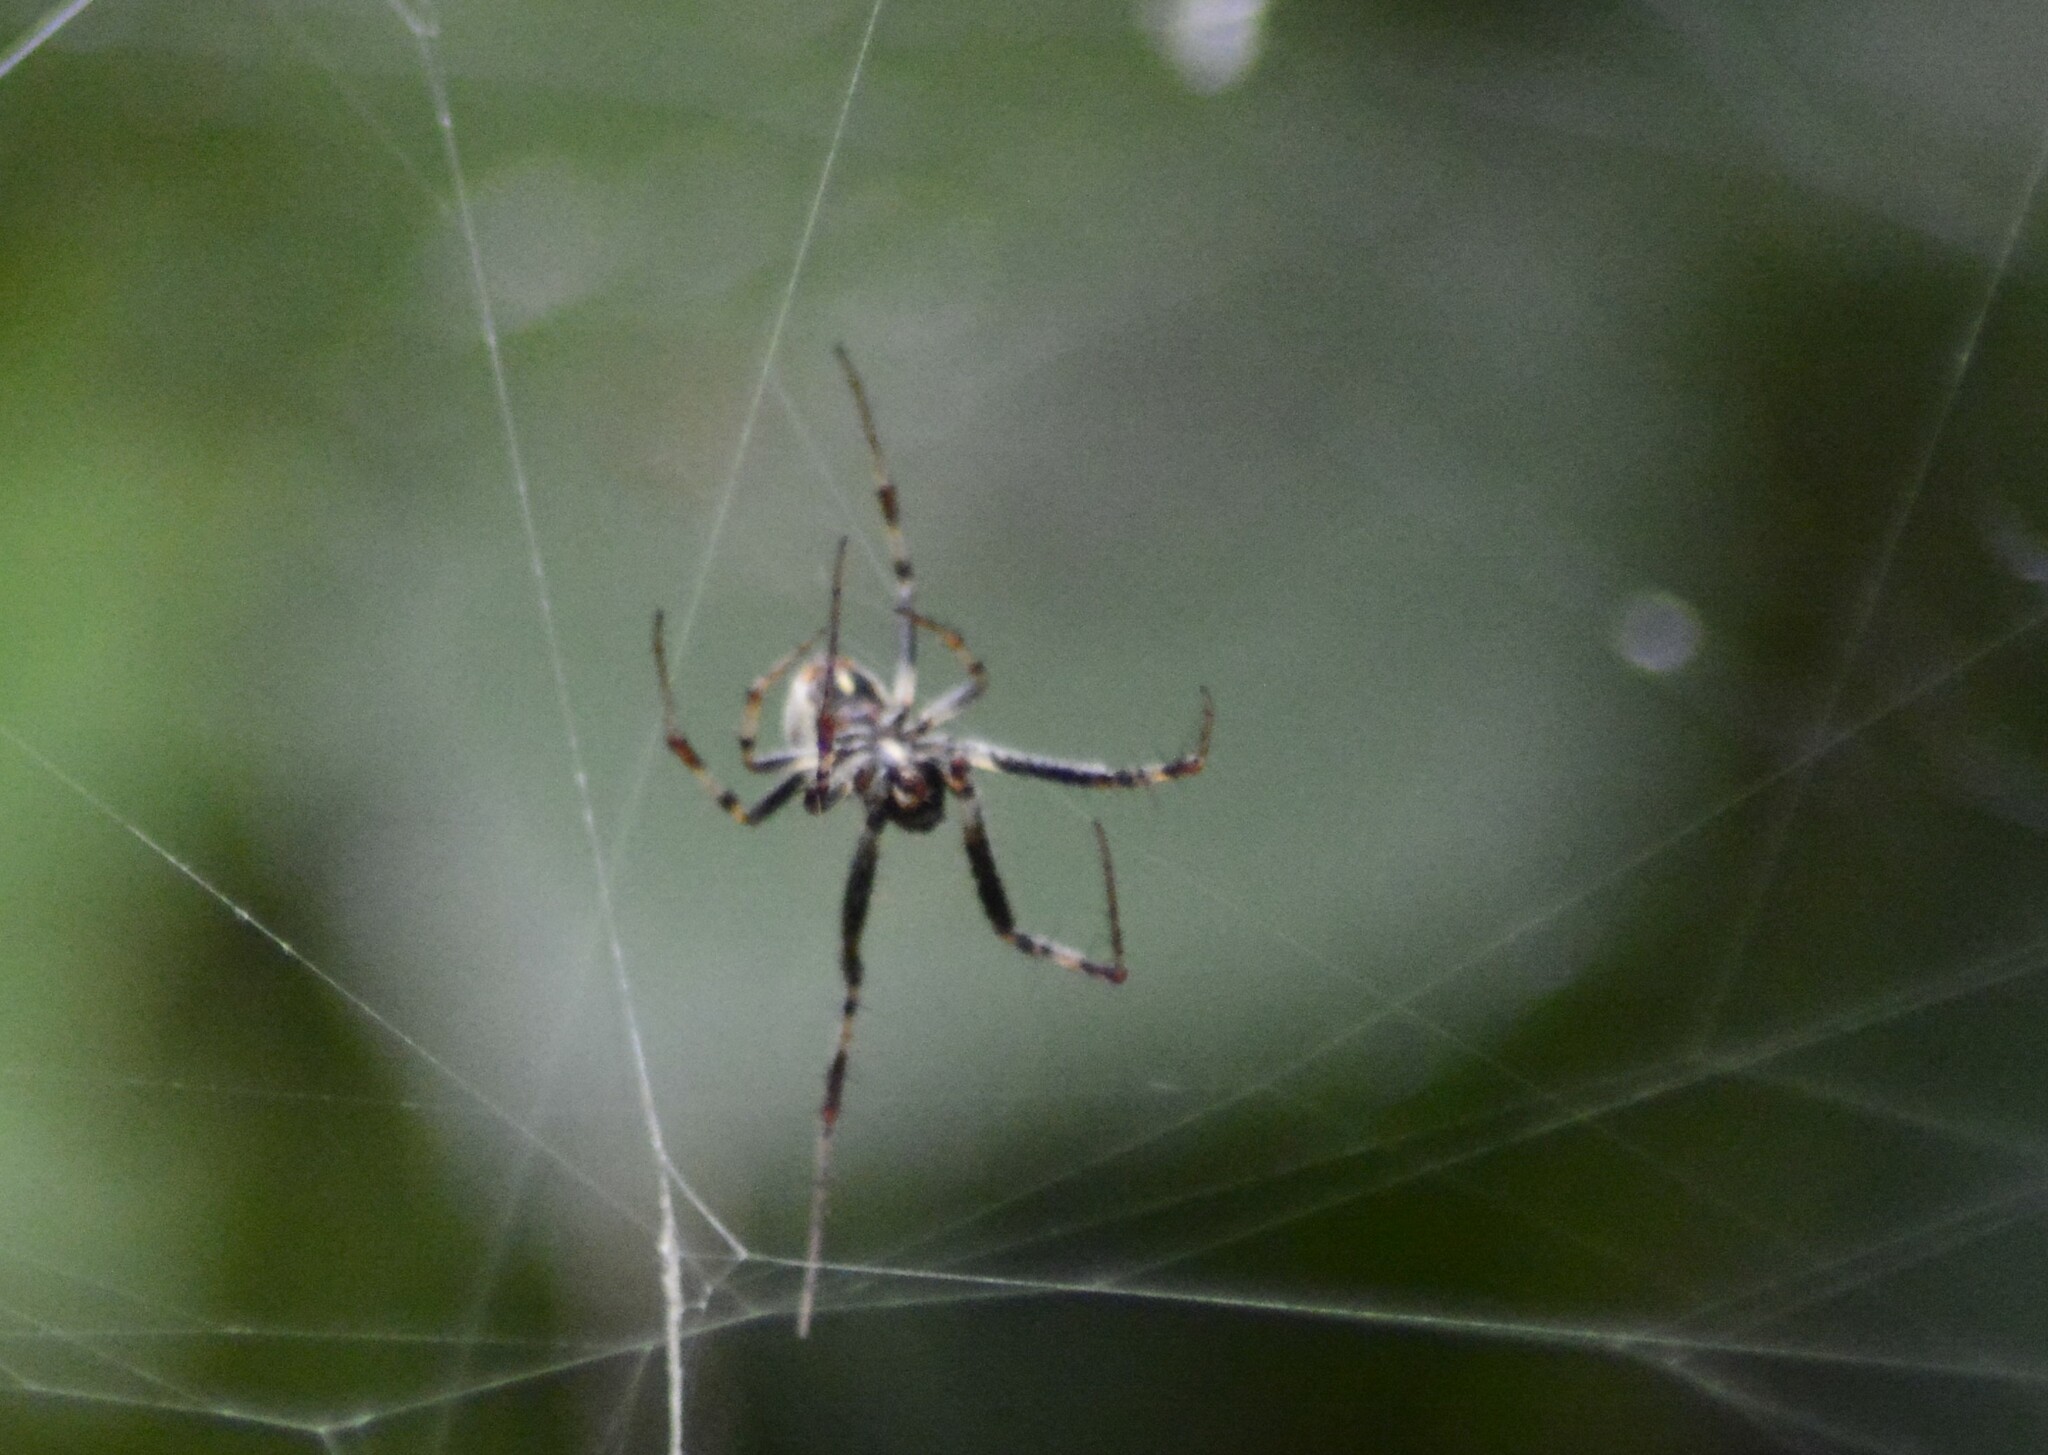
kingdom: Animalia
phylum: Arthropoda
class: Arachnida
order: Araneae
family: Araneidae
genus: Metepeira
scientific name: Metepeira
